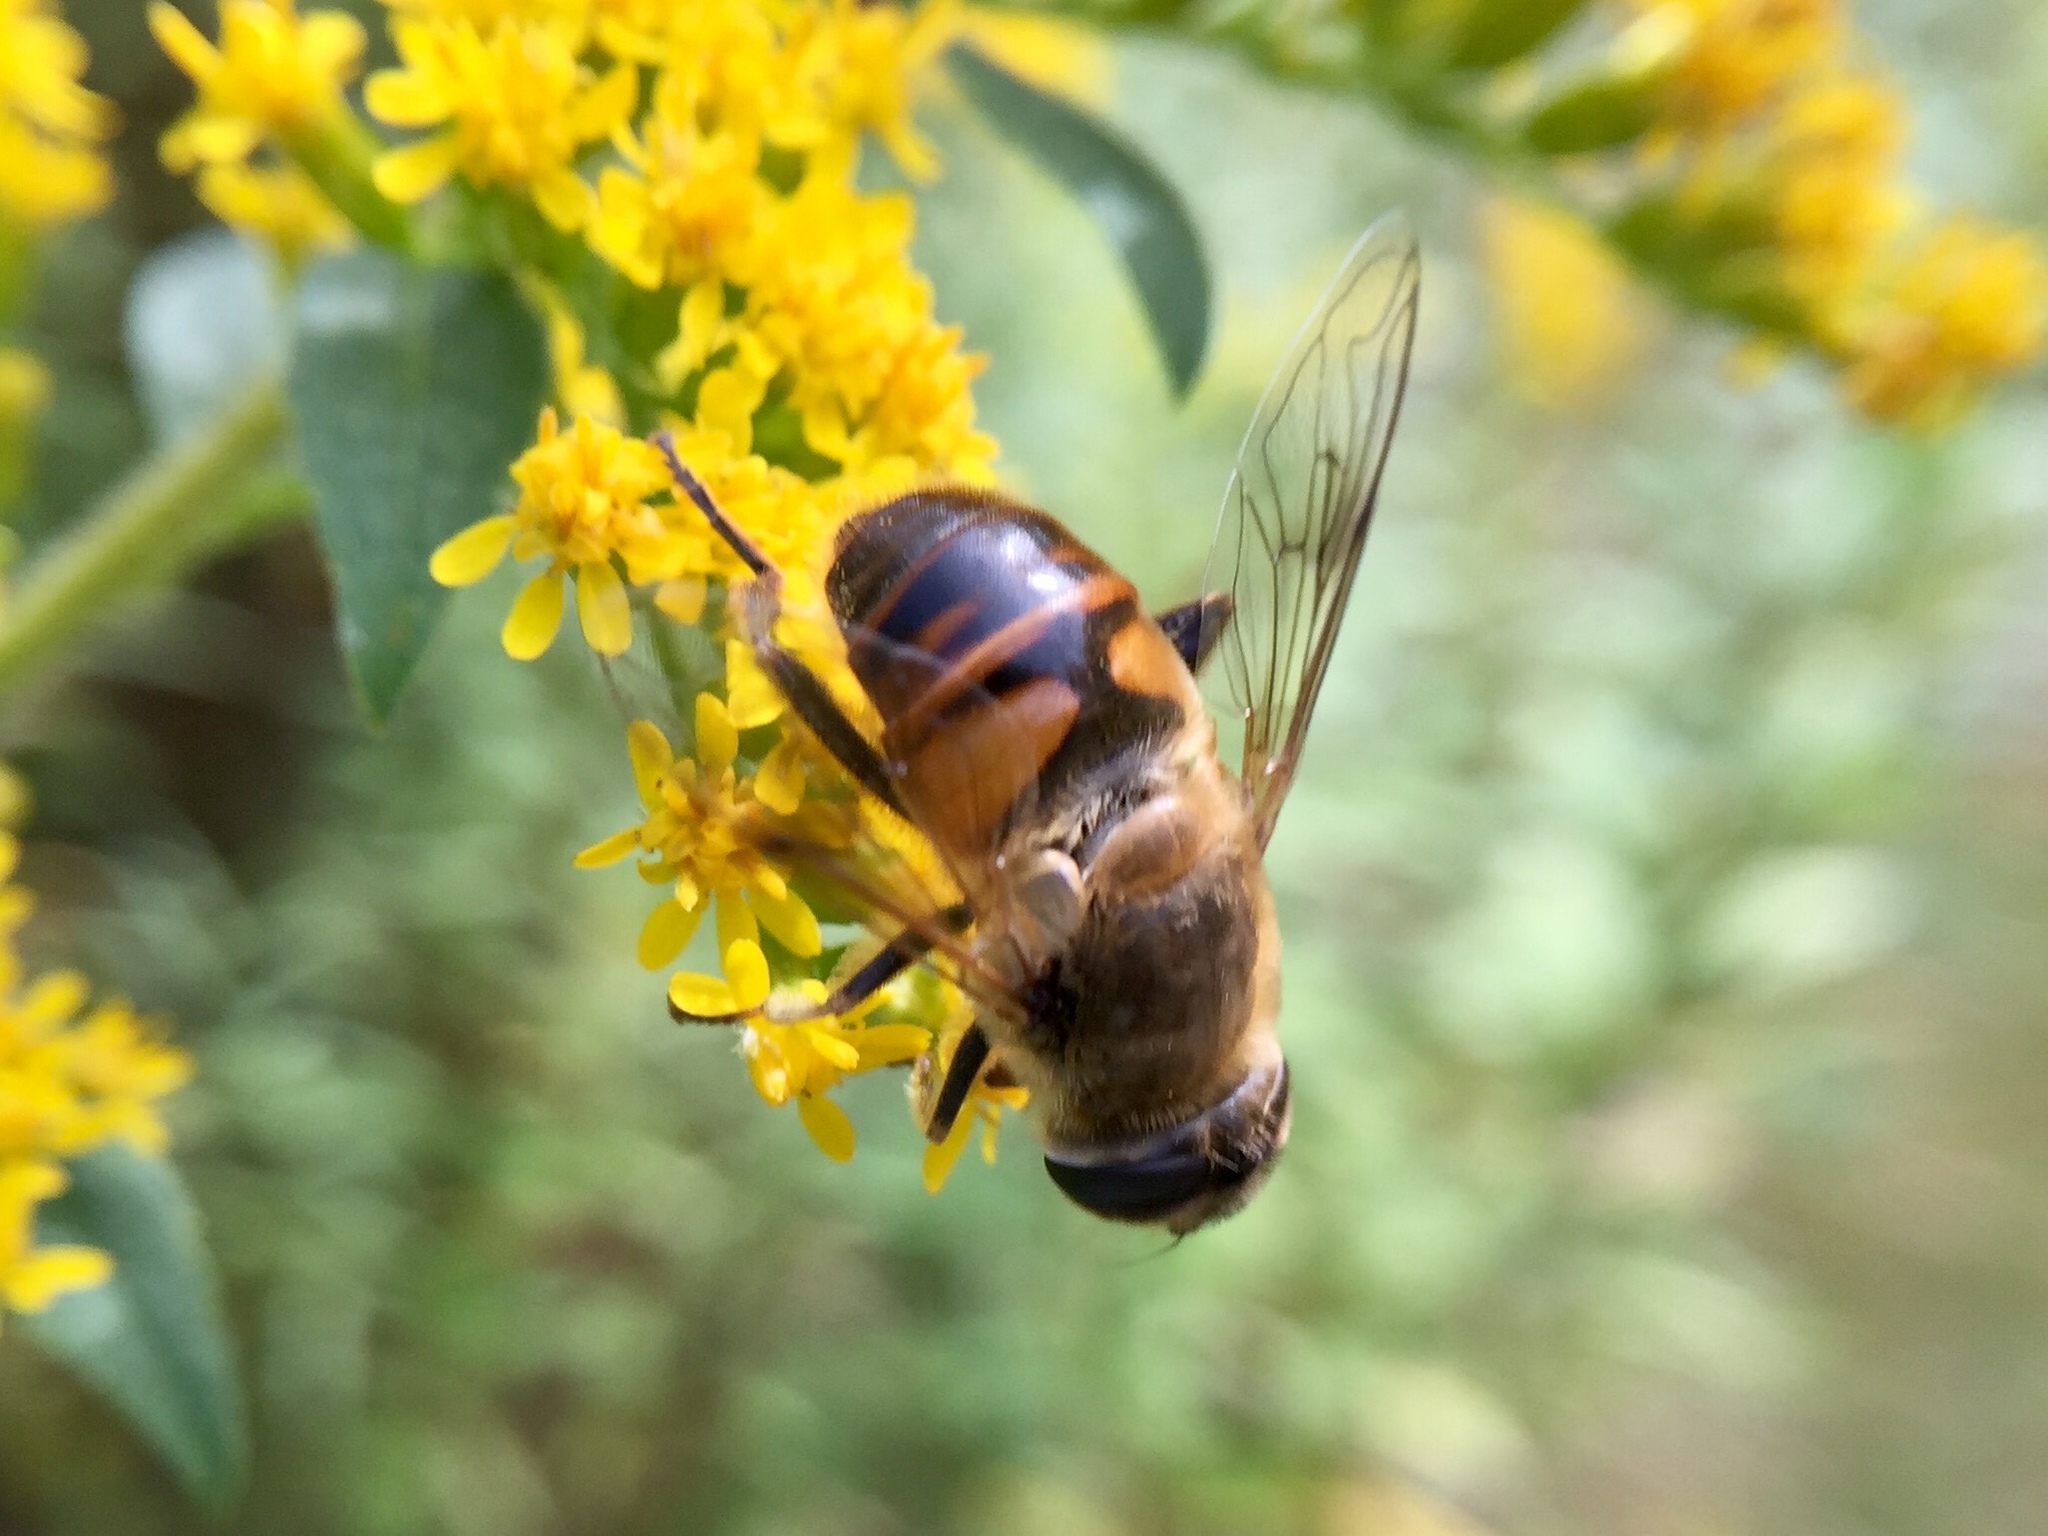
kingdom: Animalia
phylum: Arthropoda
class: Insecta
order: Diptera
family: Syrphidae
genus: Eristalis
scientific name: Eristalis tenax
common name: Drone fly
